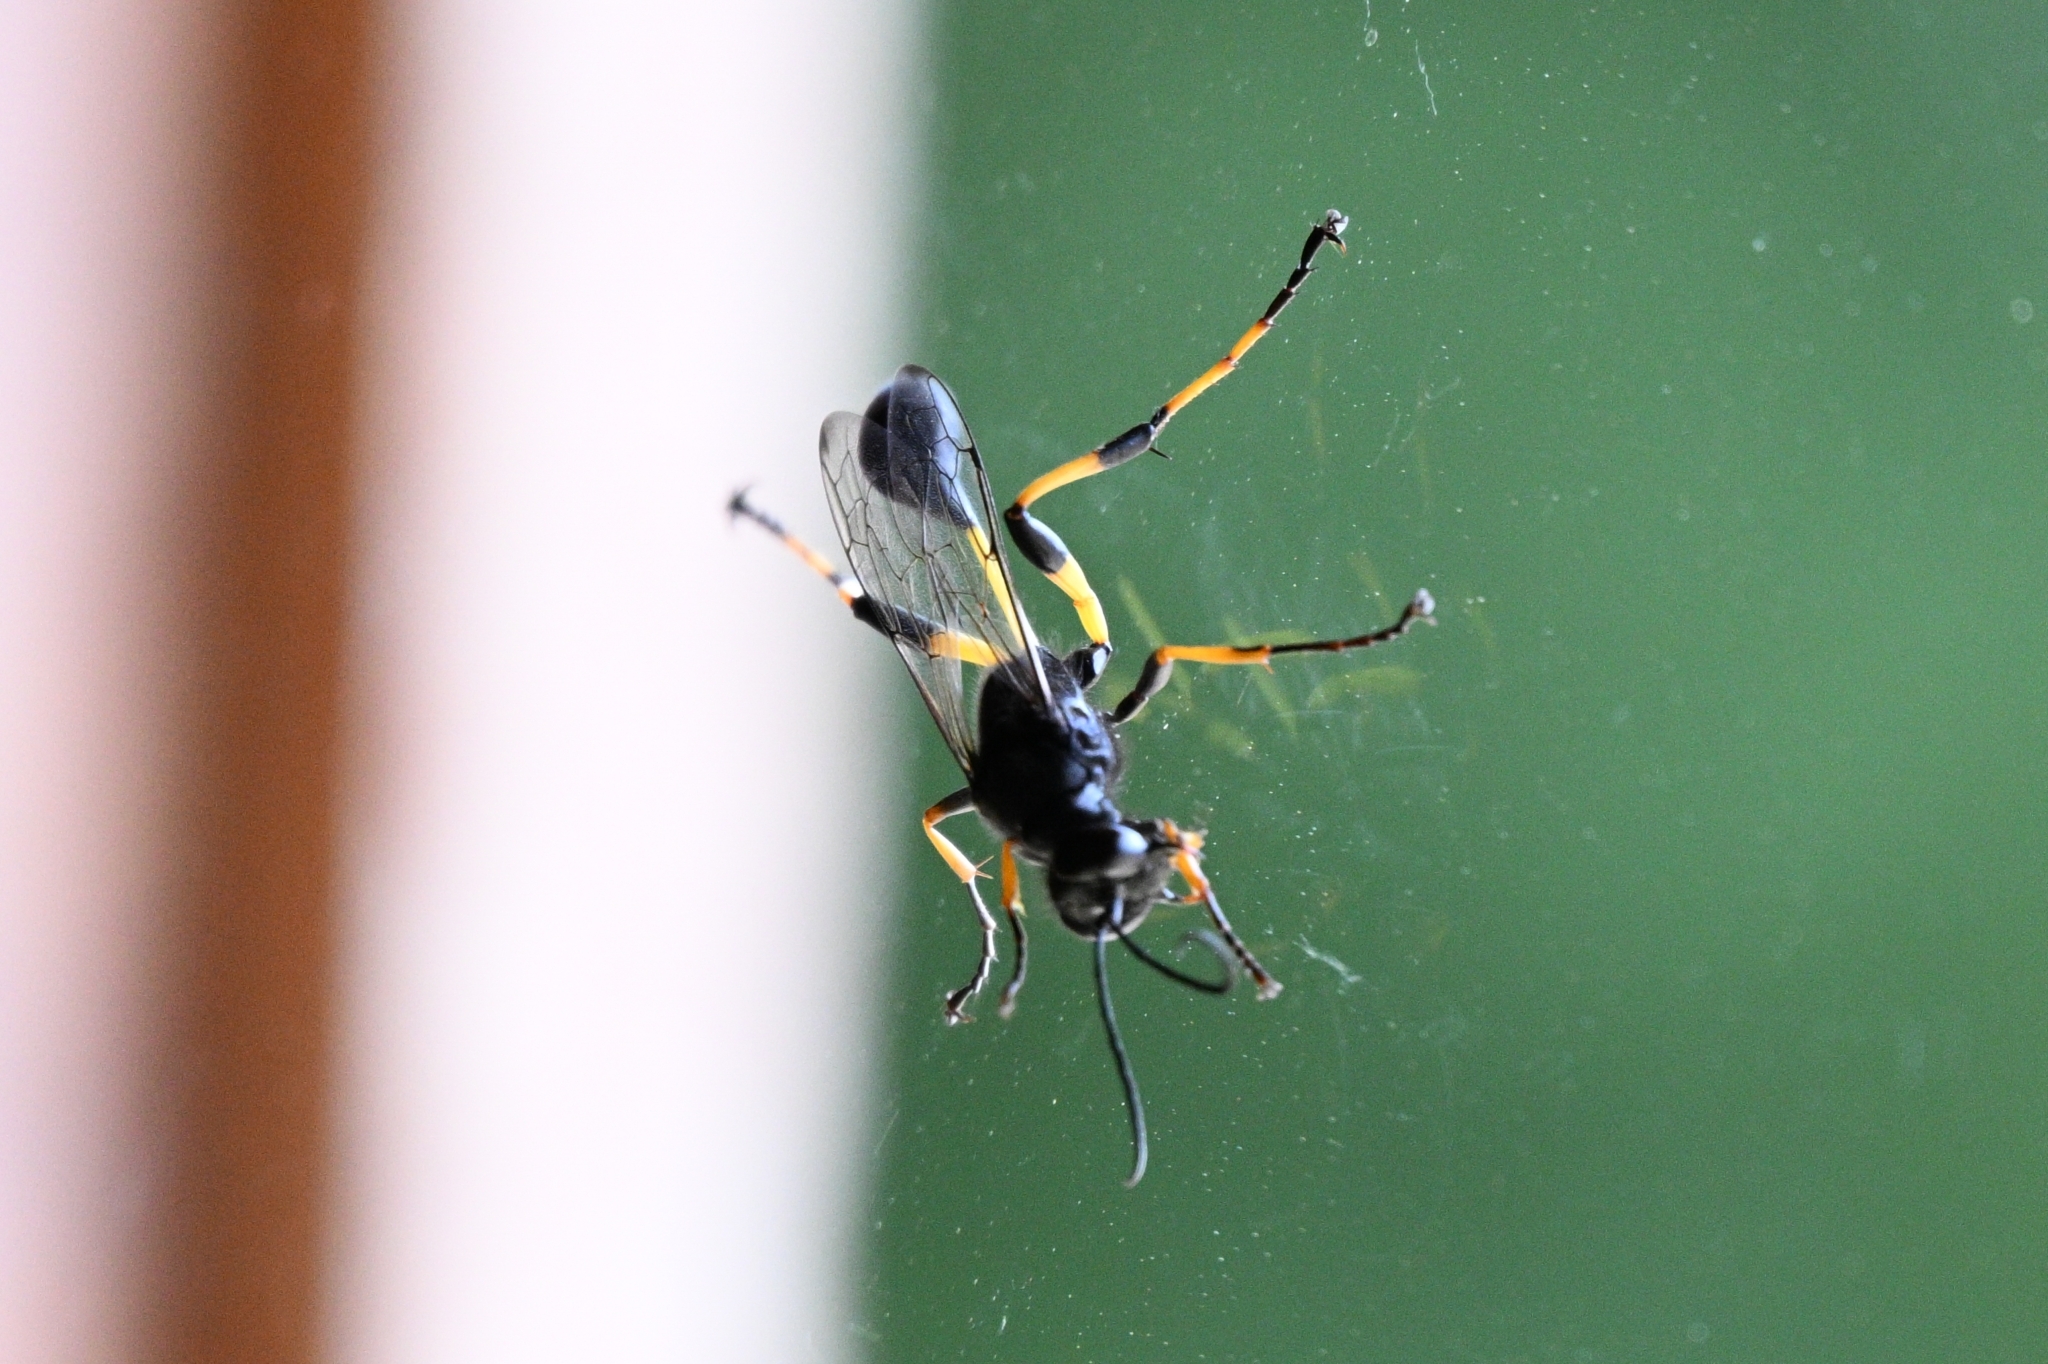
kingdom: Animalia
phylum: Arthropoda
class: Insecta
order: Hymenoptera
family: Sphecidae
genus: Sceliphron
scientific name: Sceliphron spirifex
